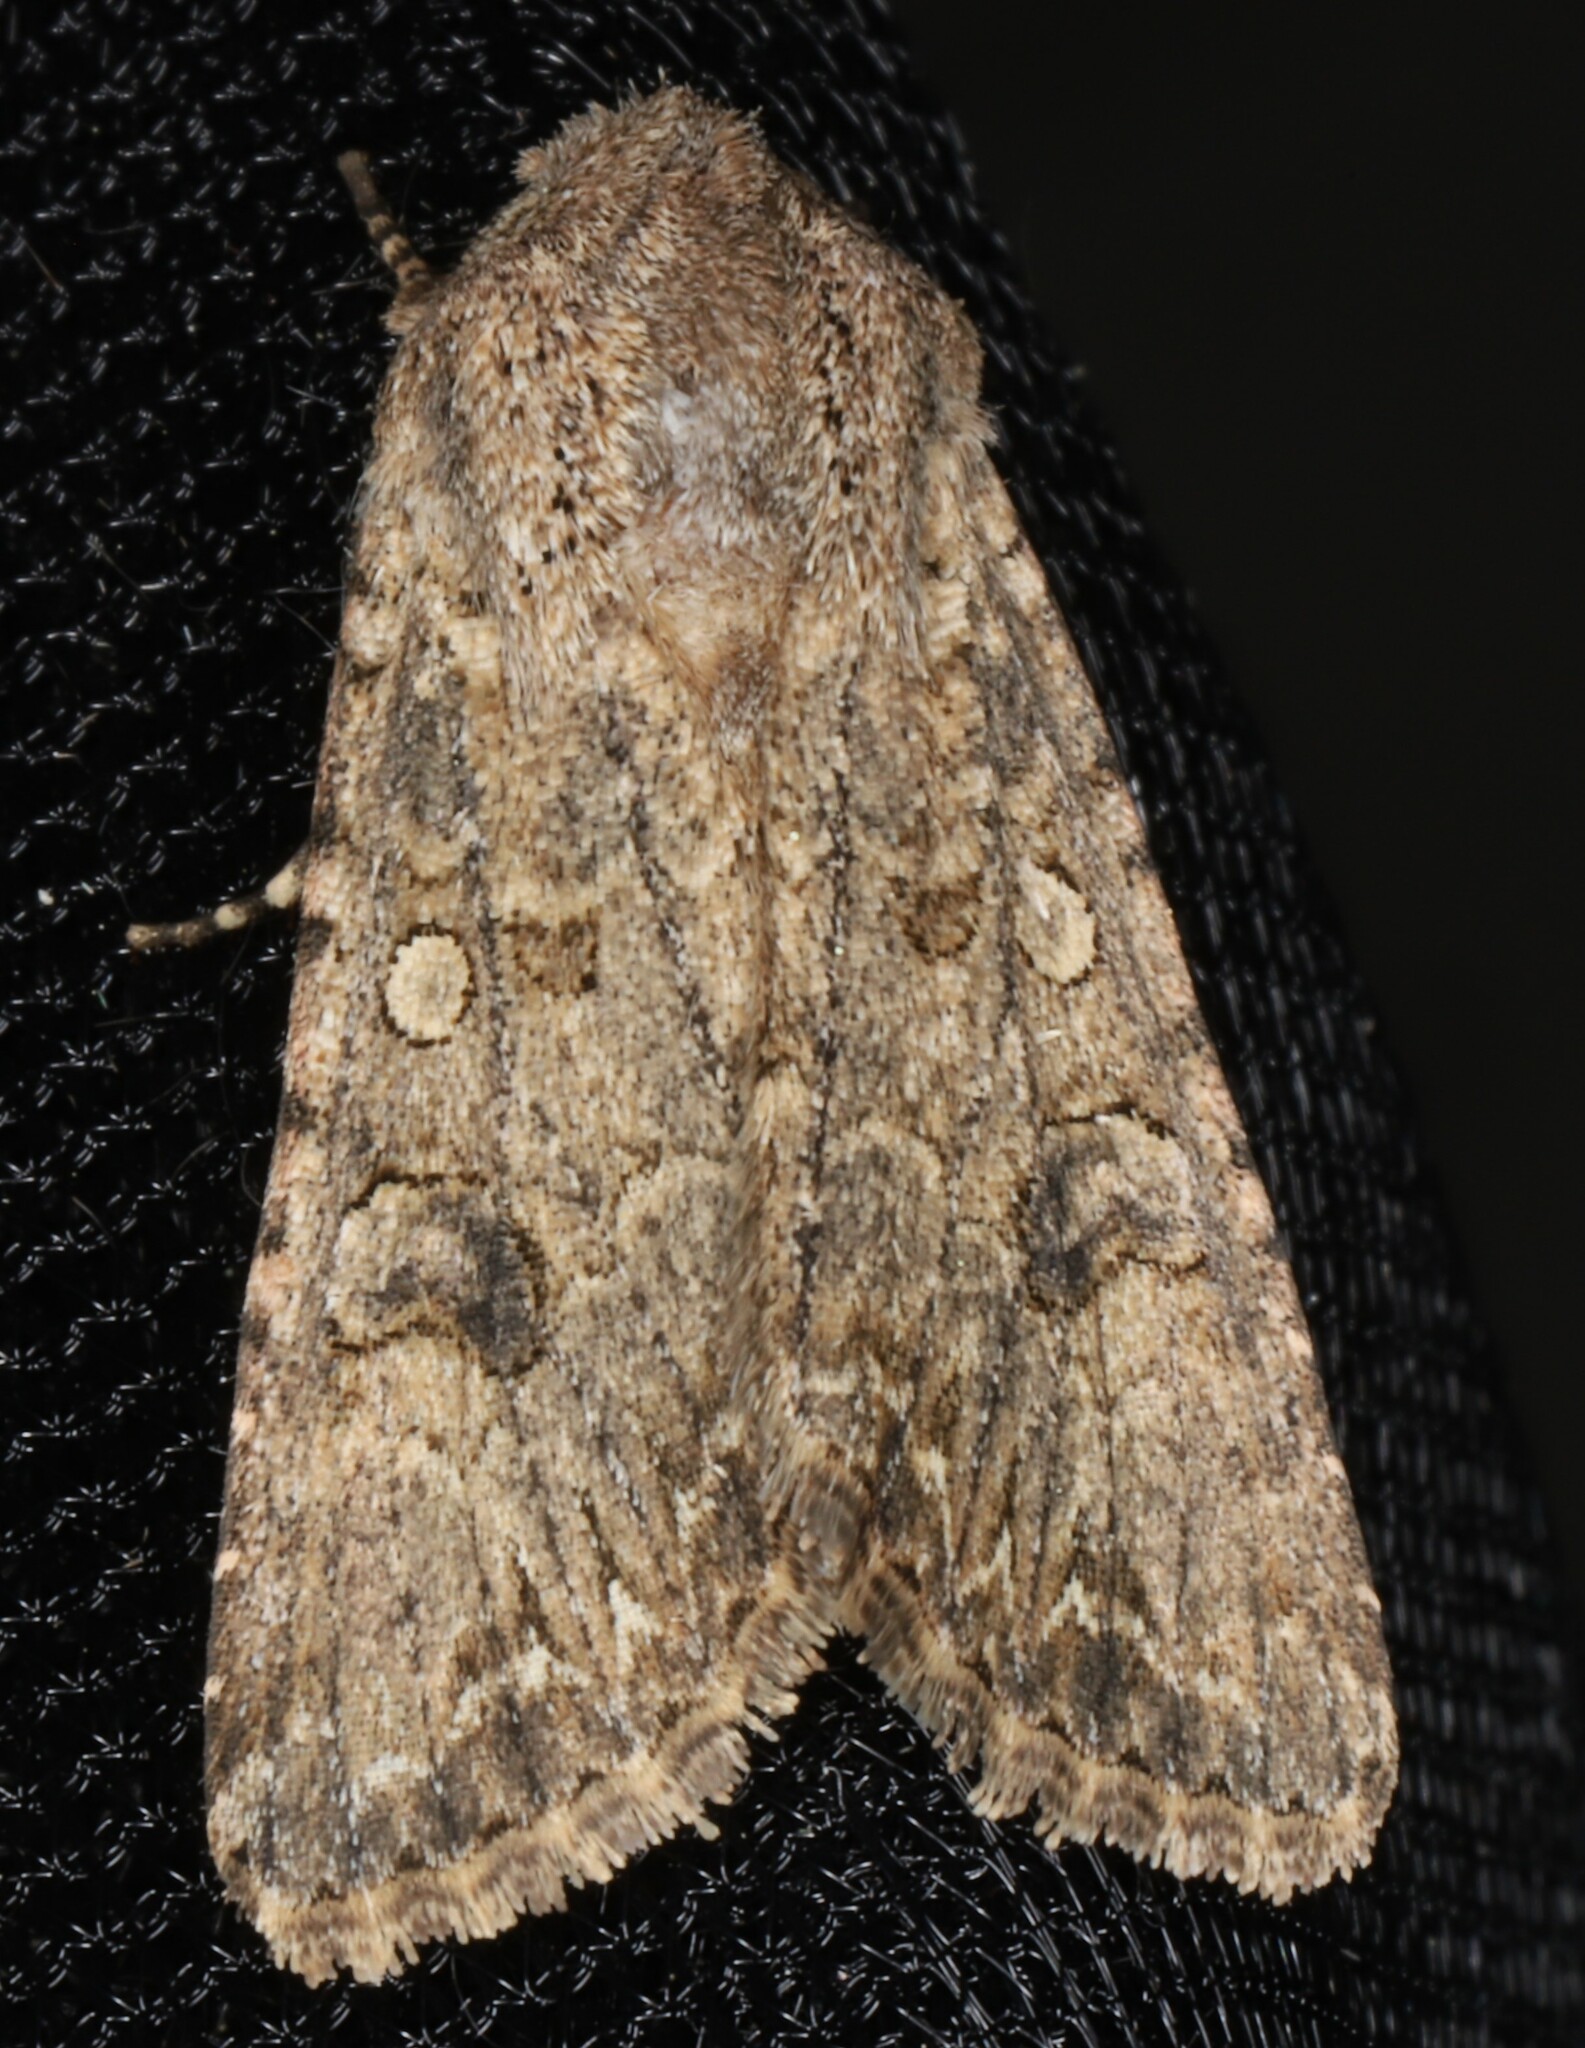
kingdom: Animalia
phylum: Arthropoda
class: Insecta
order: Lepidoptera
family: Noctuidae
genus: Anarta
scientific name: Anarta trifolii
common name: Clover cutworm moth
